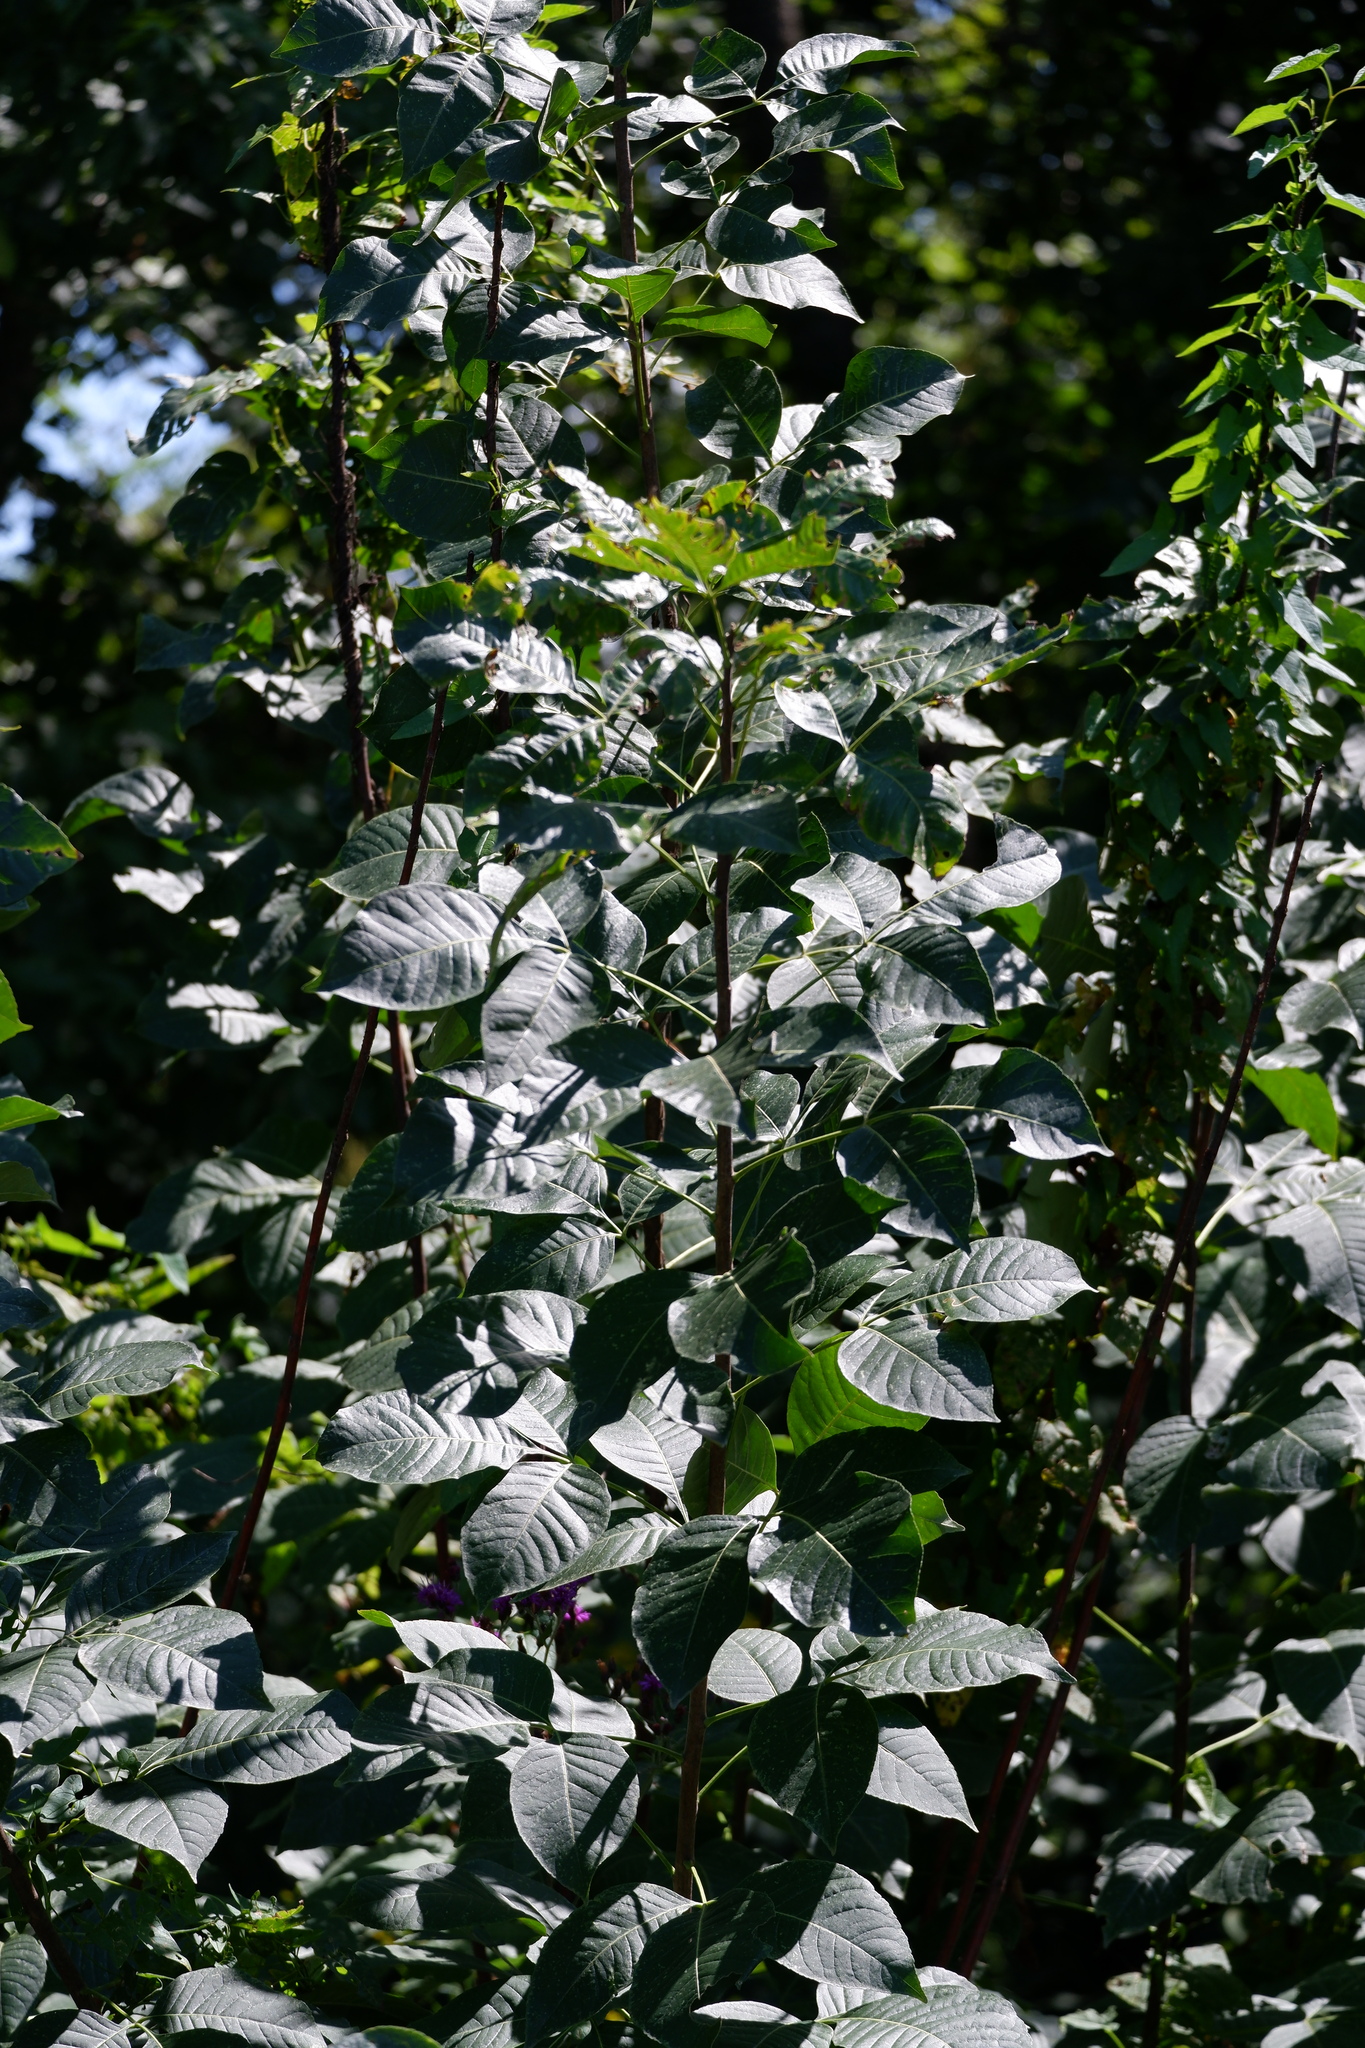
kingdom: Plantae
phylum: Tracheophyta
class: Magnoliopsida
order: Sapindales
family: Rutaceae
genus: Ptelea
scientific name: Ptelea trifoliata
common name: Common hop-tree
